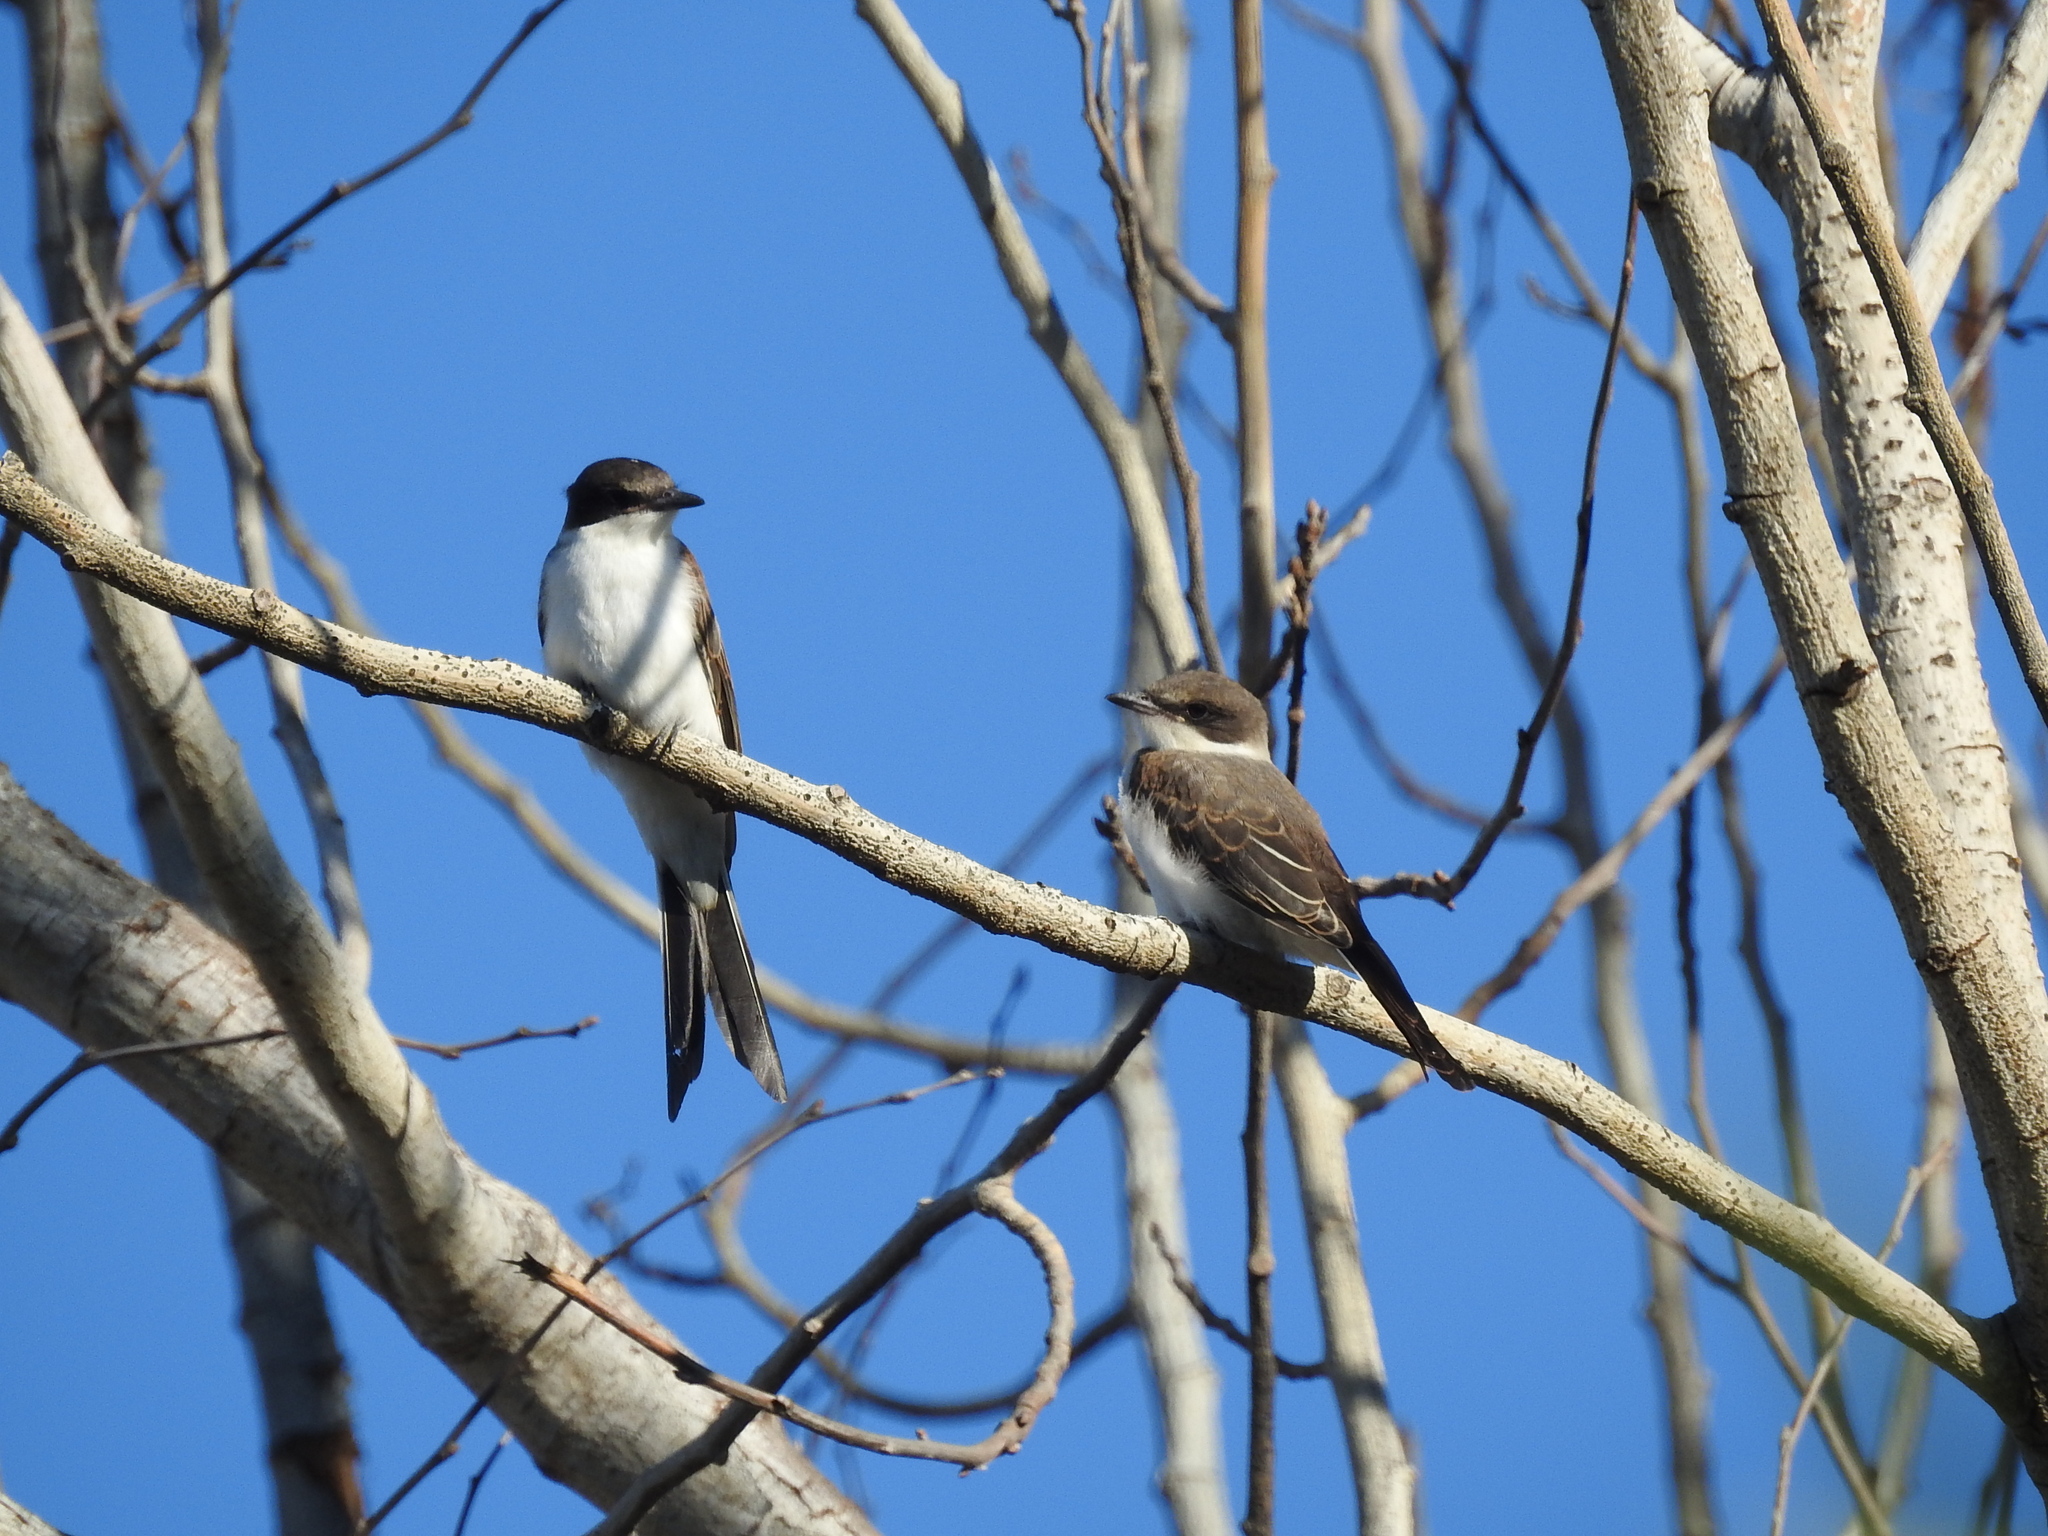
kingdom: Animalia
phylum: Chordata
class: Aves
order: Passeriformes
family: Tyrannidae
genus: Tyrannus
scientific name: Tyrannus savana
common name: Fork-tailed flycatcher
